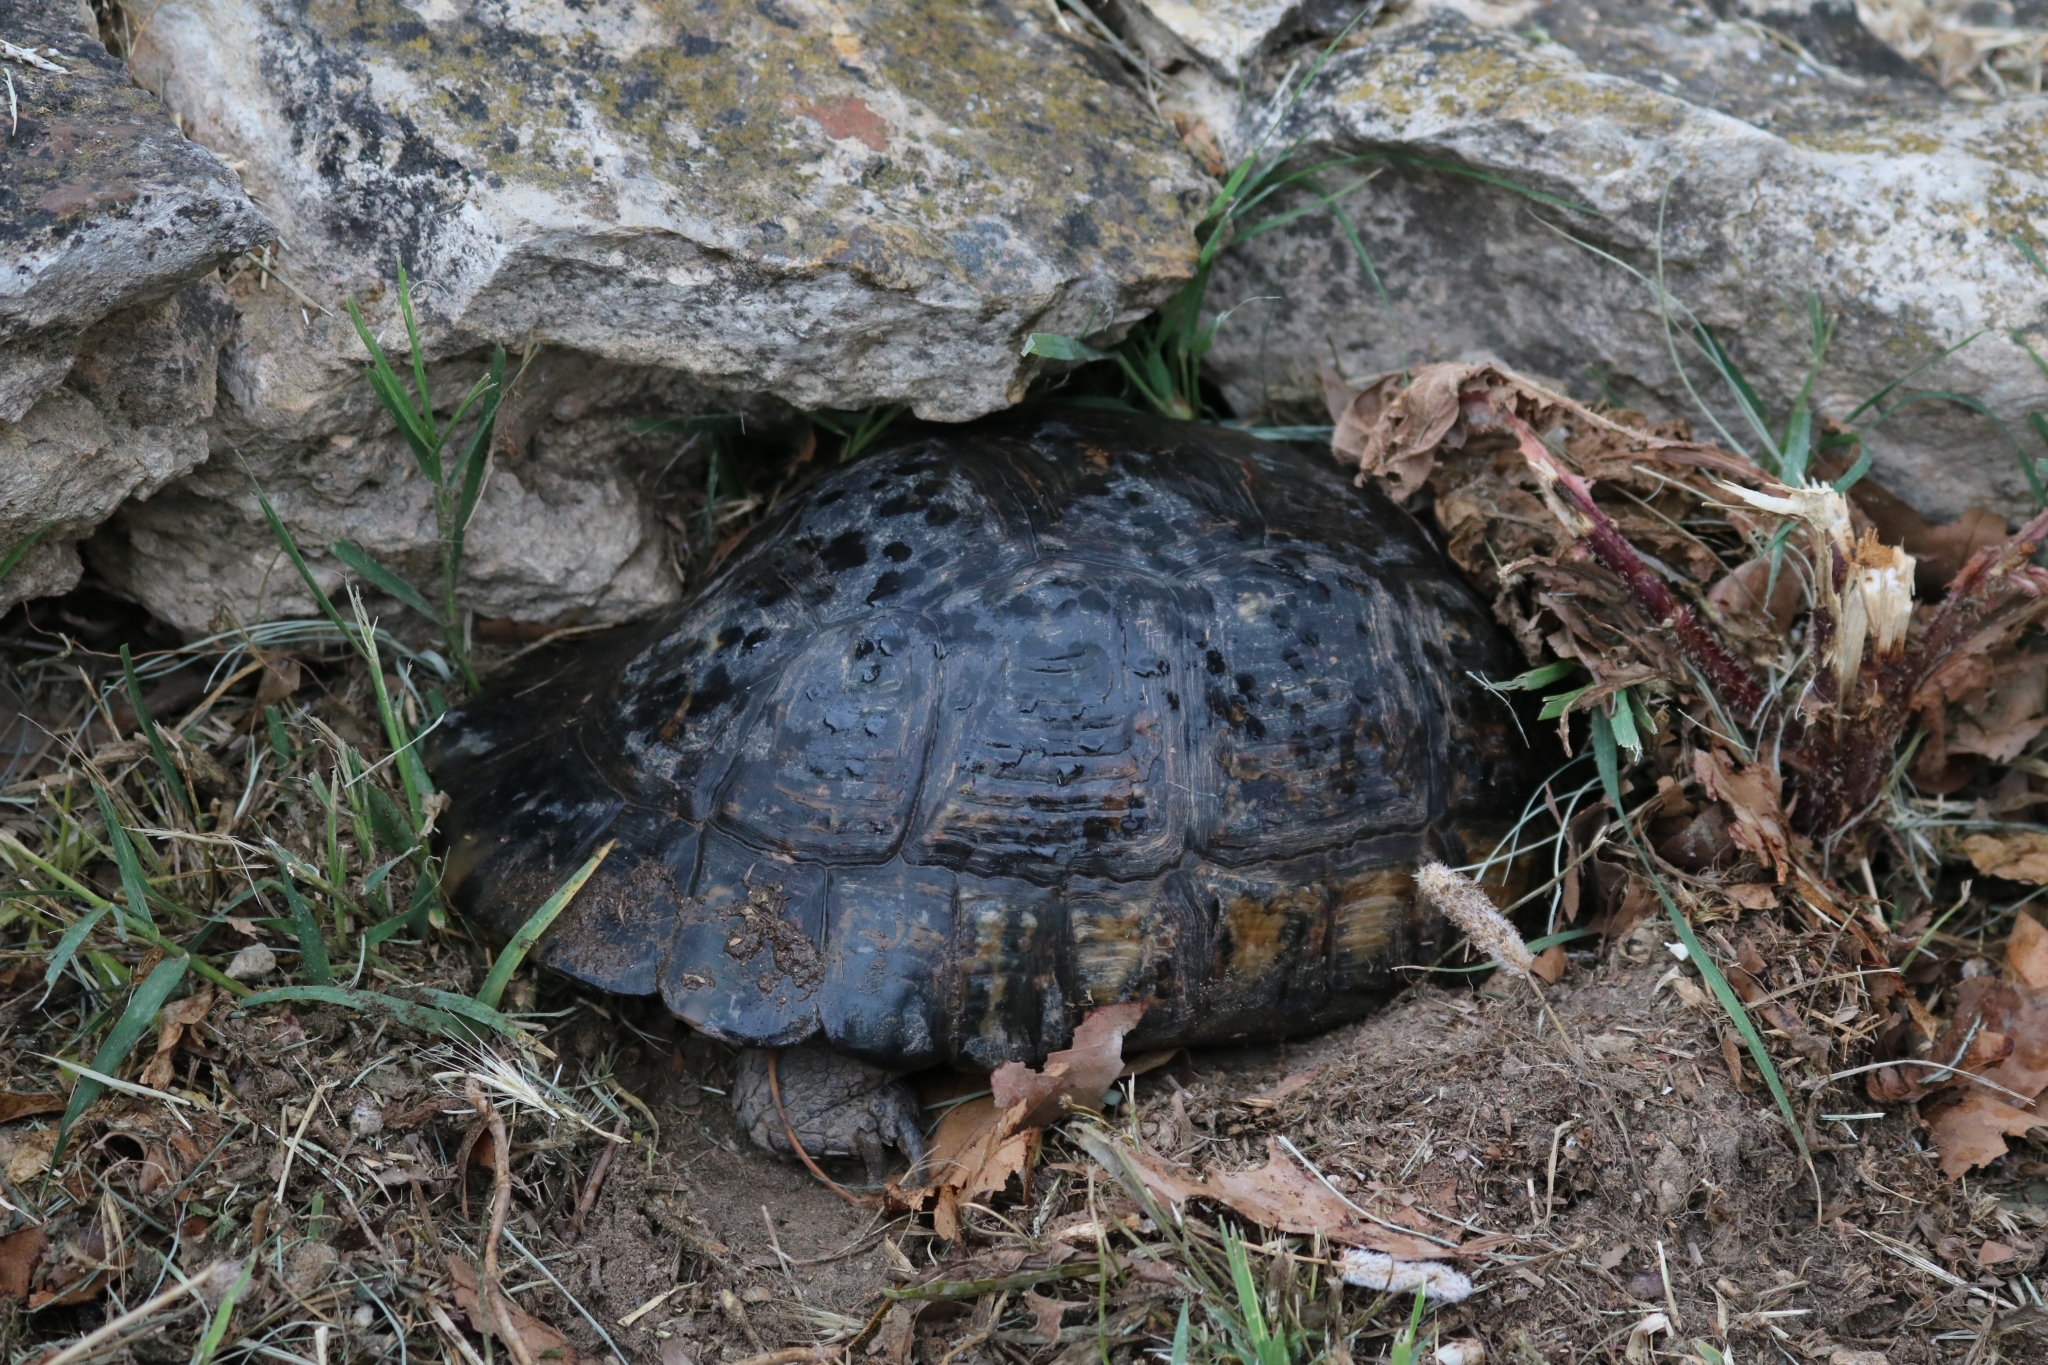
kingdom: Animalia
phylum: Chordata
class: Testudines
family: Testudinidae
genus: Testudo
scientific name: Testudo marginata
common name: Marginated tortoise
